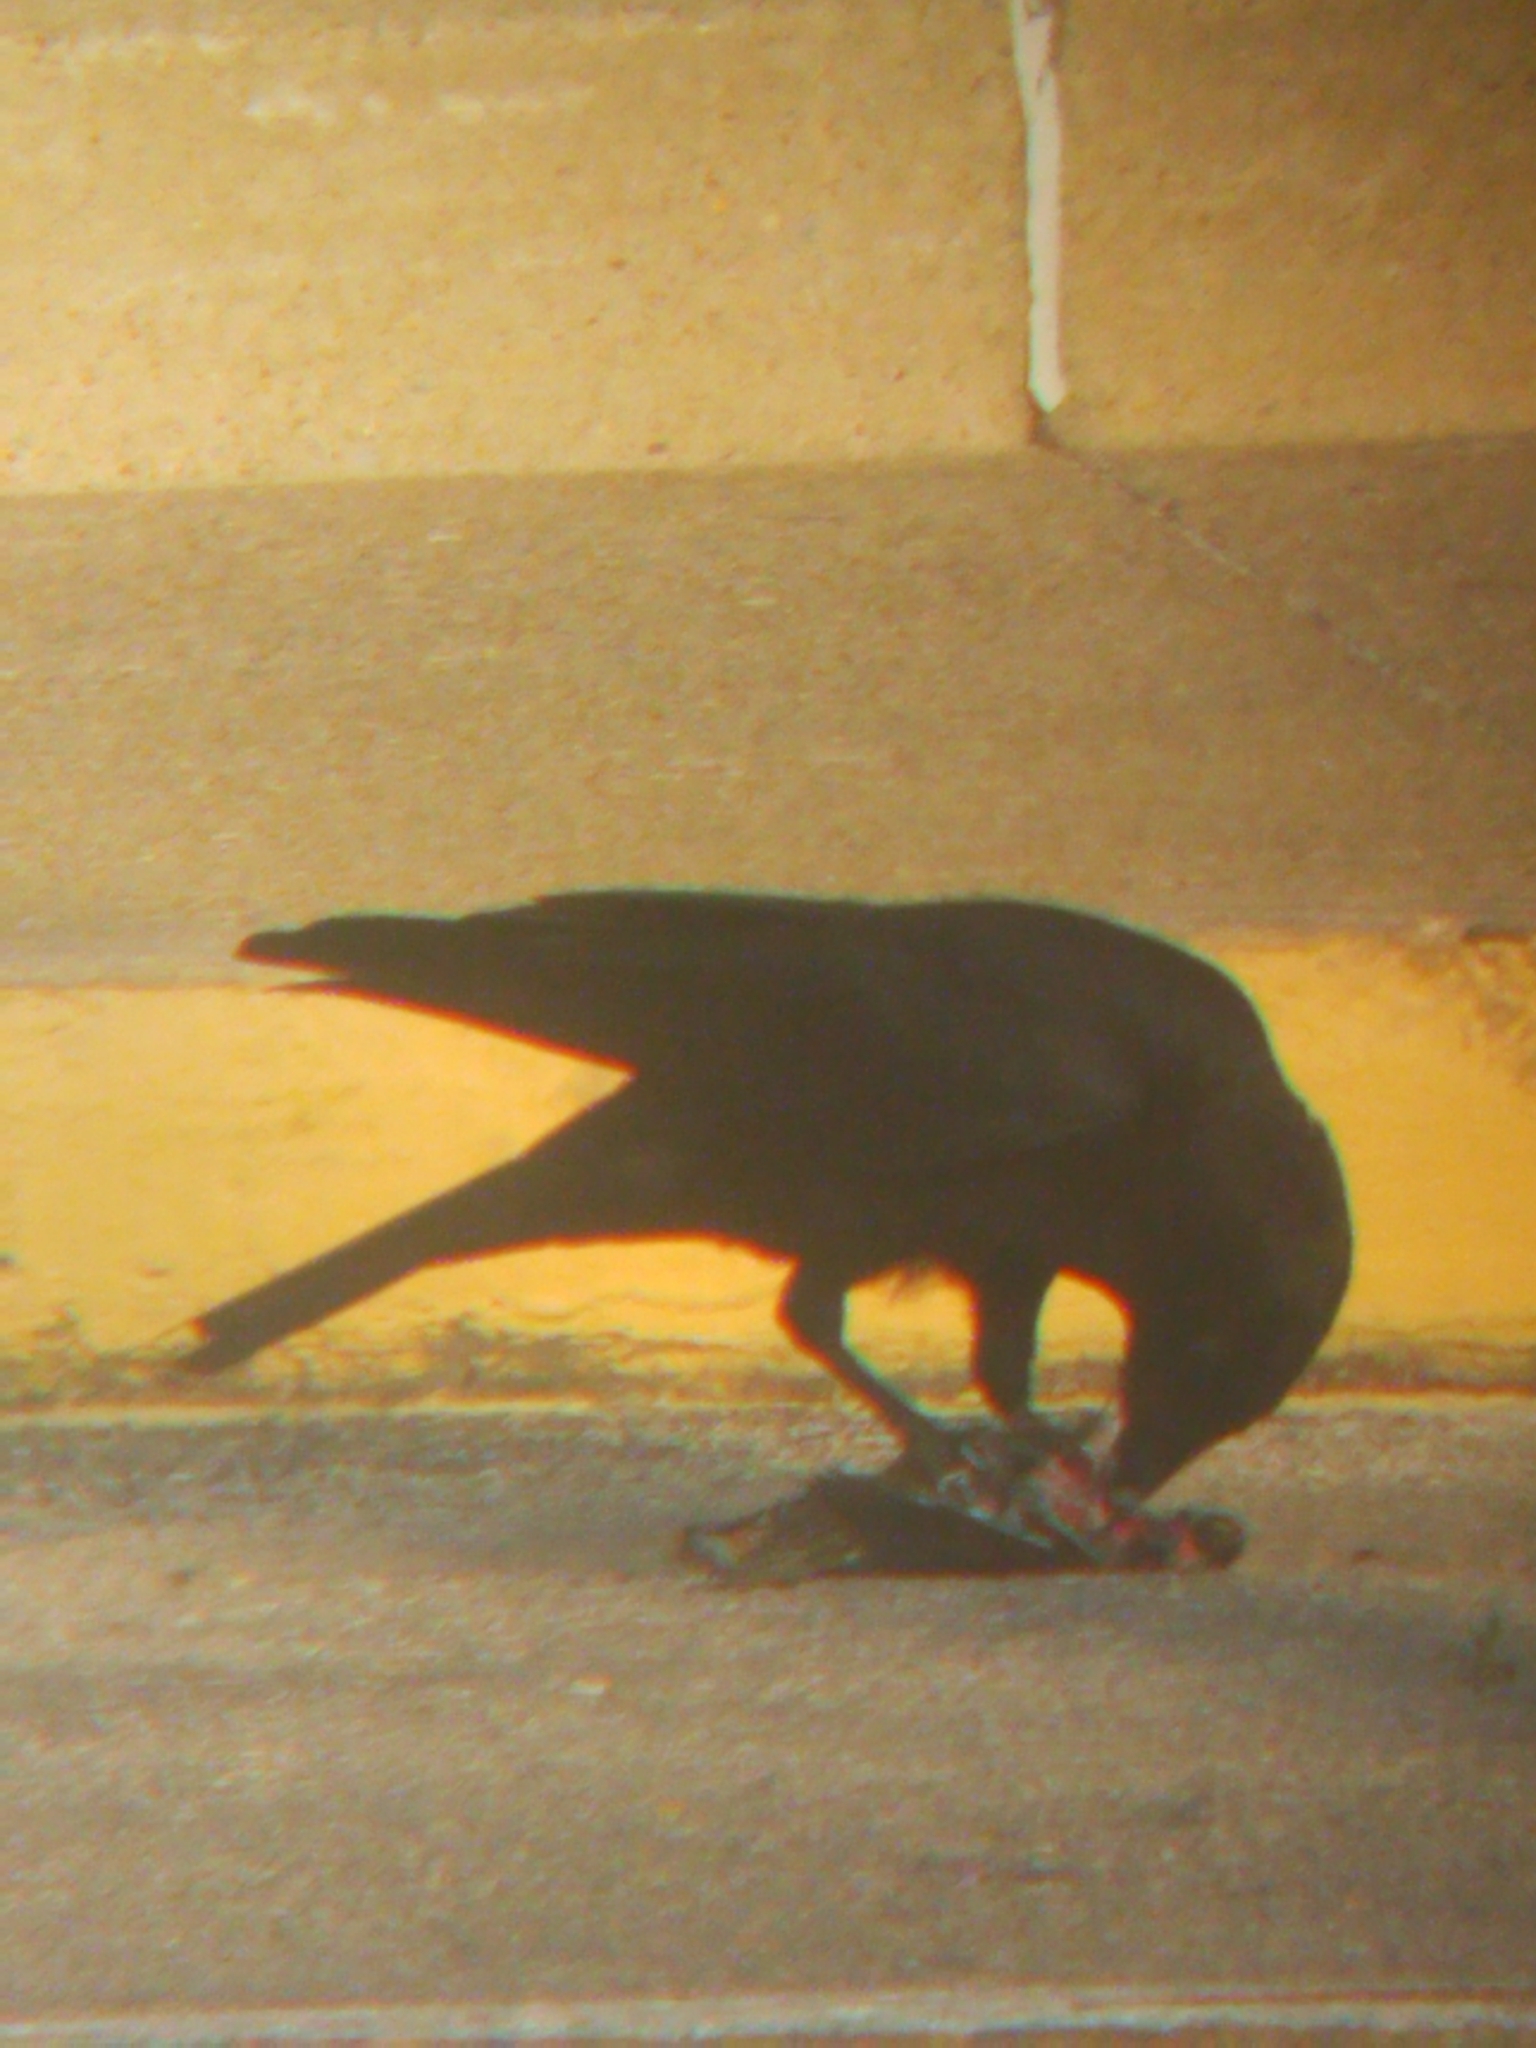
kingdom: Animalia
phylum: Chordata
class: Aves
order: Passeriformes
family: Corvidae
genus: Corvus
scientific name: Corvus brachyrhynchos
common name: American crow
